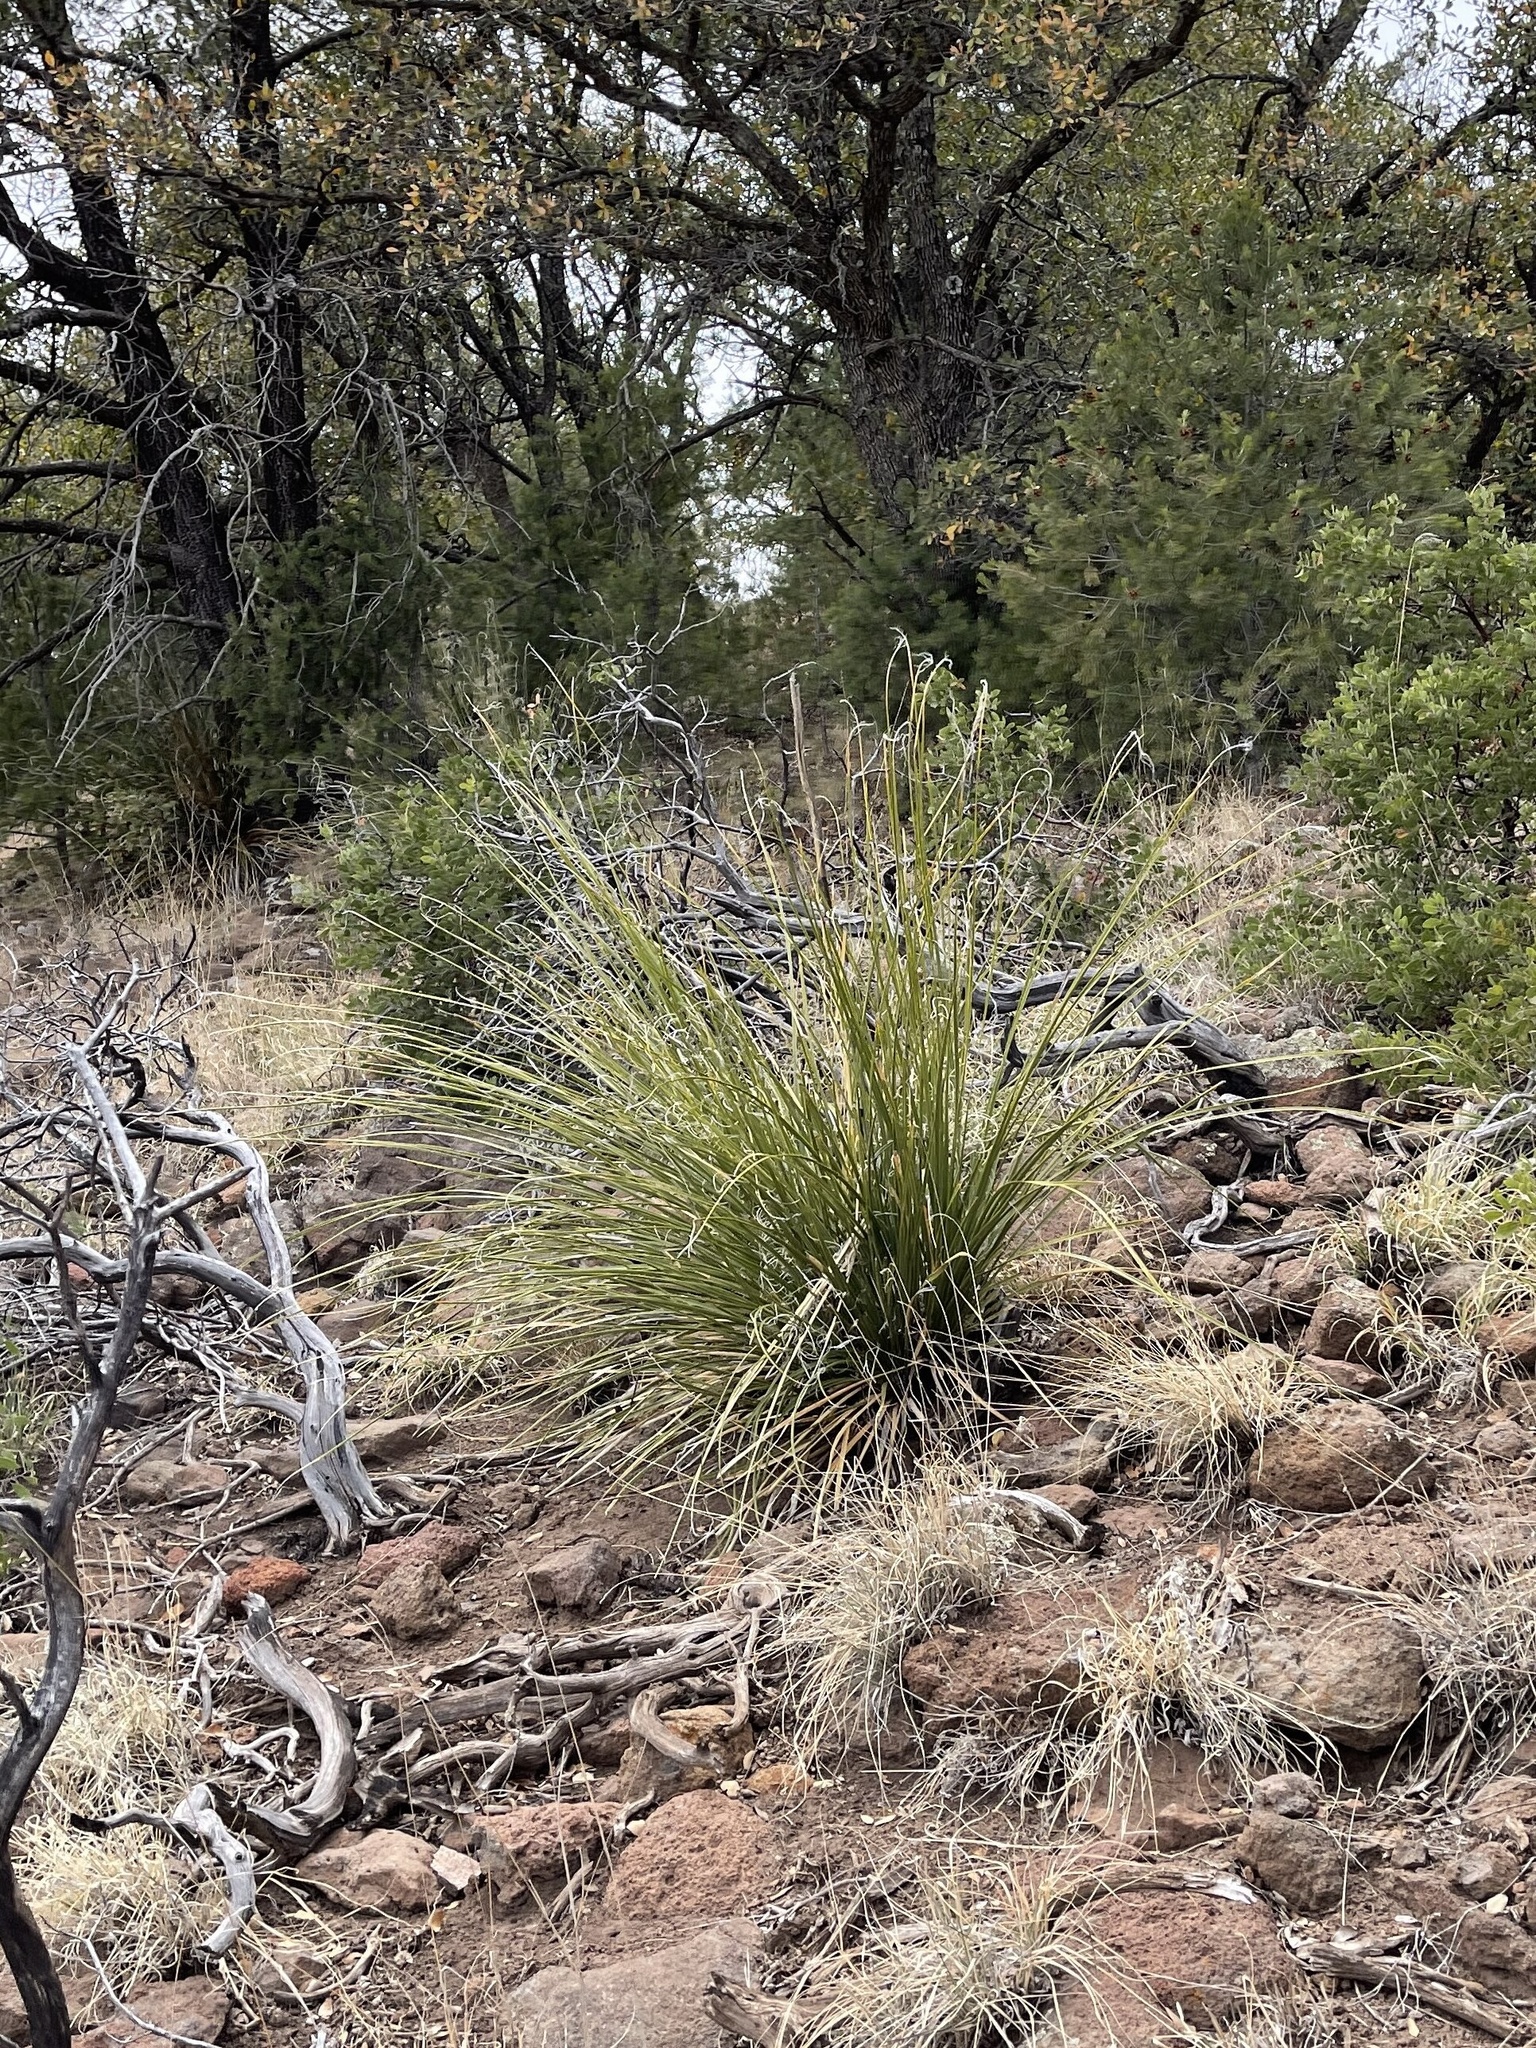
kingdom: Plantae
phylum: Tracheophyta
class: Liliopsida
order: Asparagales
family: Asparagaceae
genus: Nolina
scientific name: Nolina microcarpa
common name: Bear-grass
